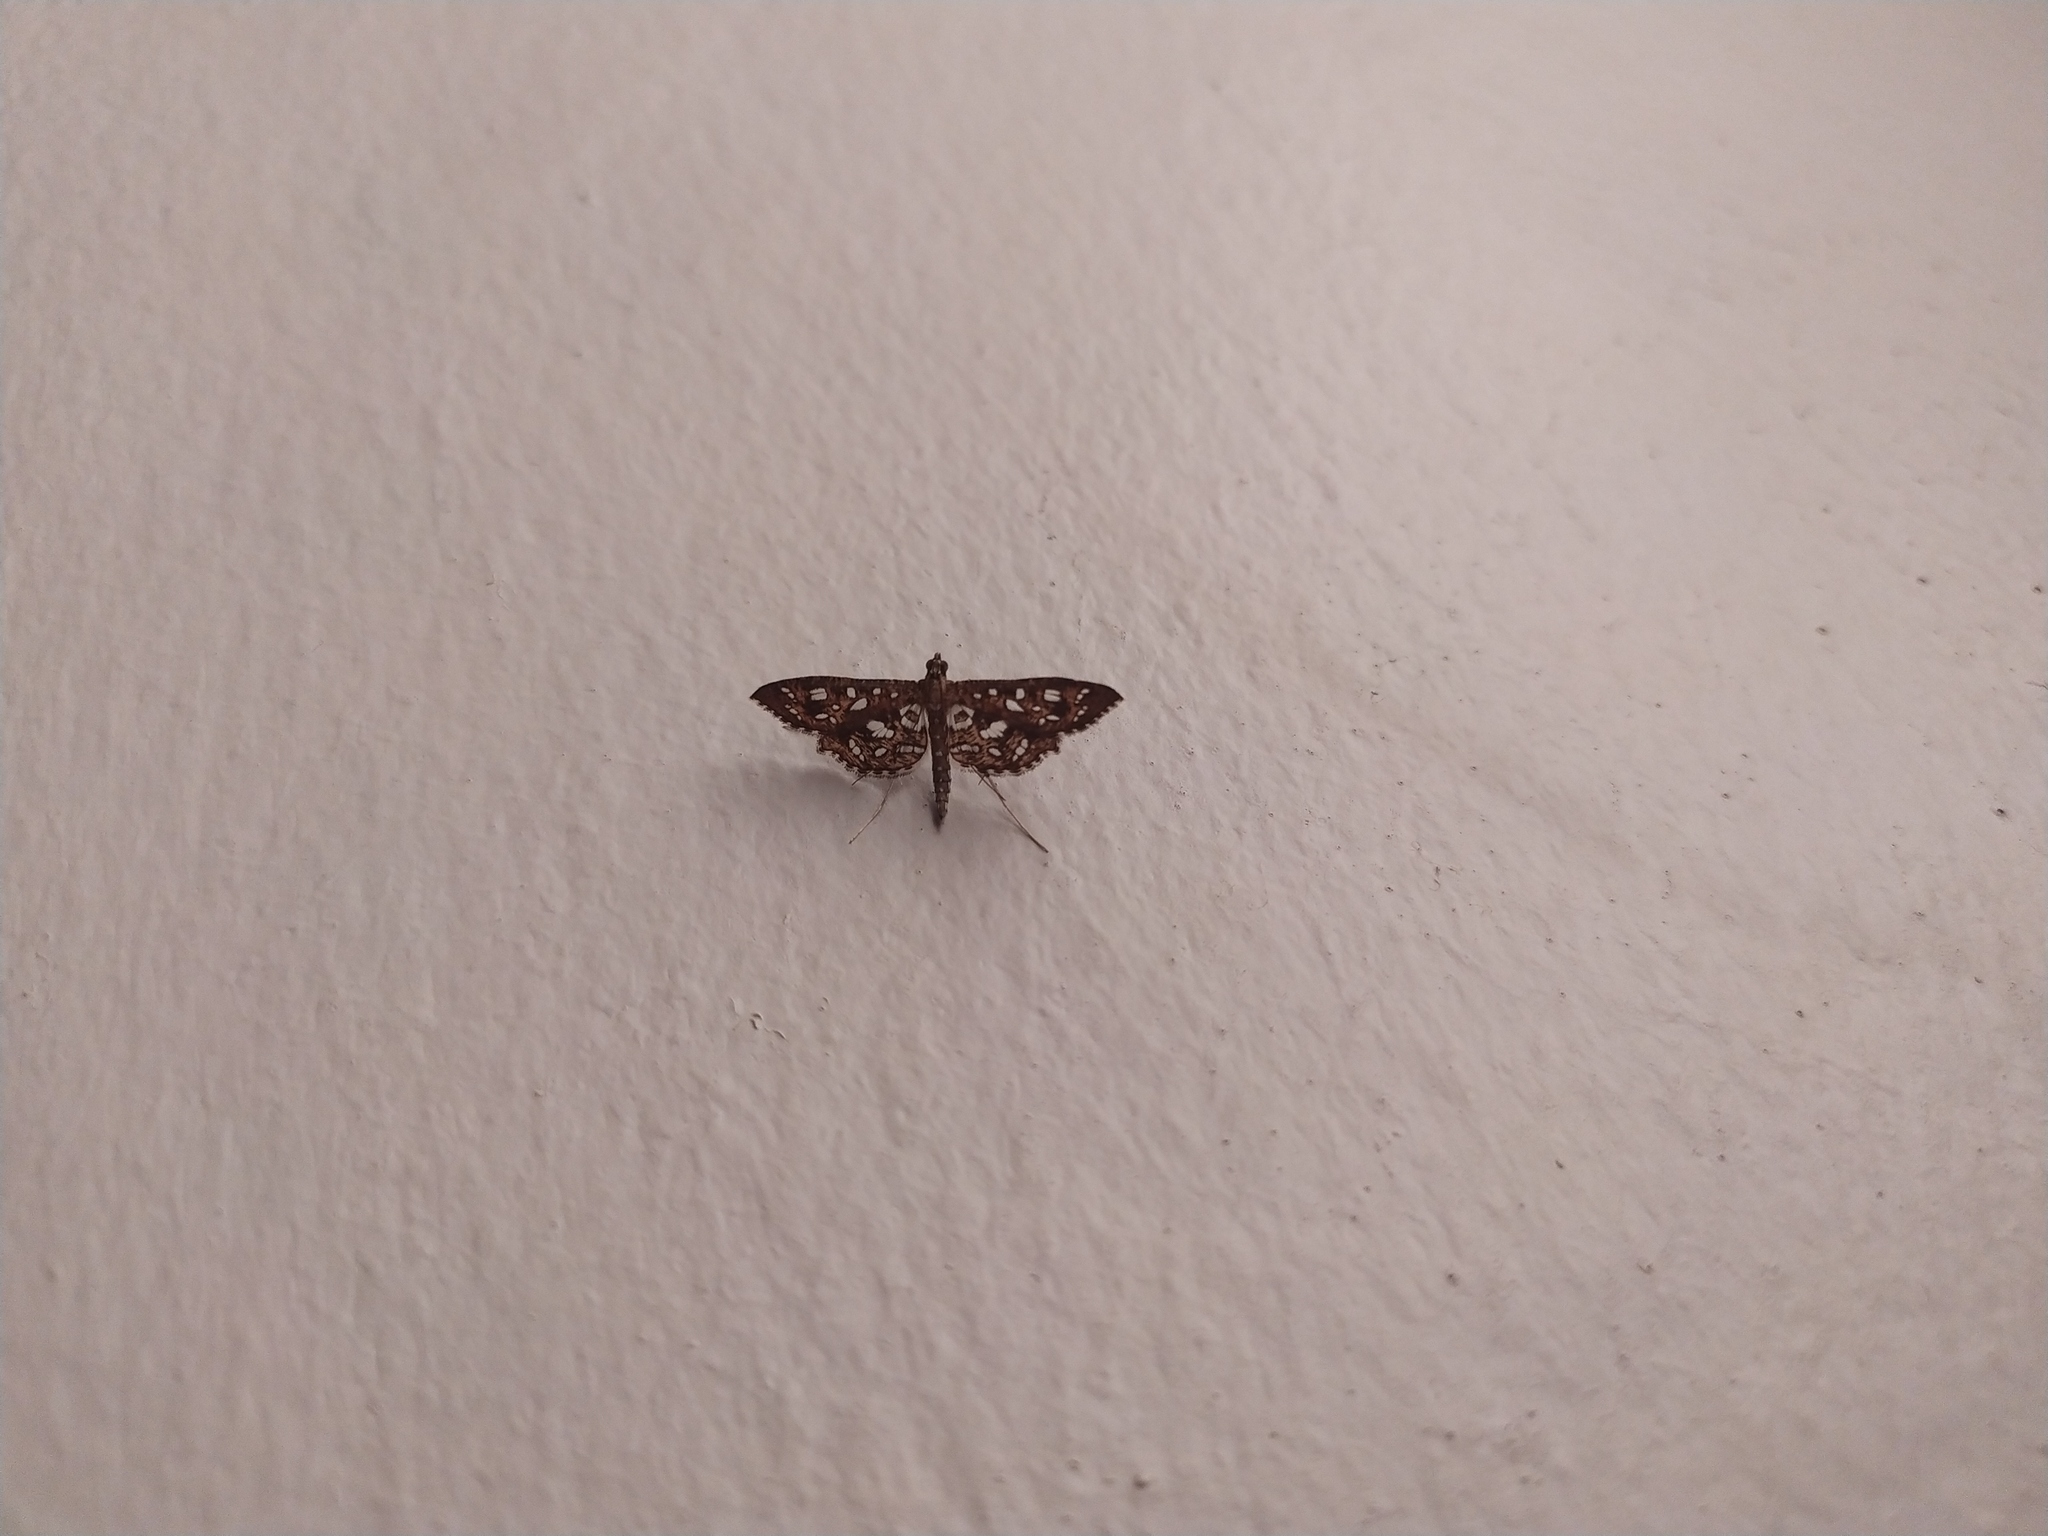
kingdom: Animalia
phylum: Arthropoda
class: Insecta
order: Lepidoptera
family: Crambidae
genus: Nausinoe
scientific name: Nausinoe geometralis
